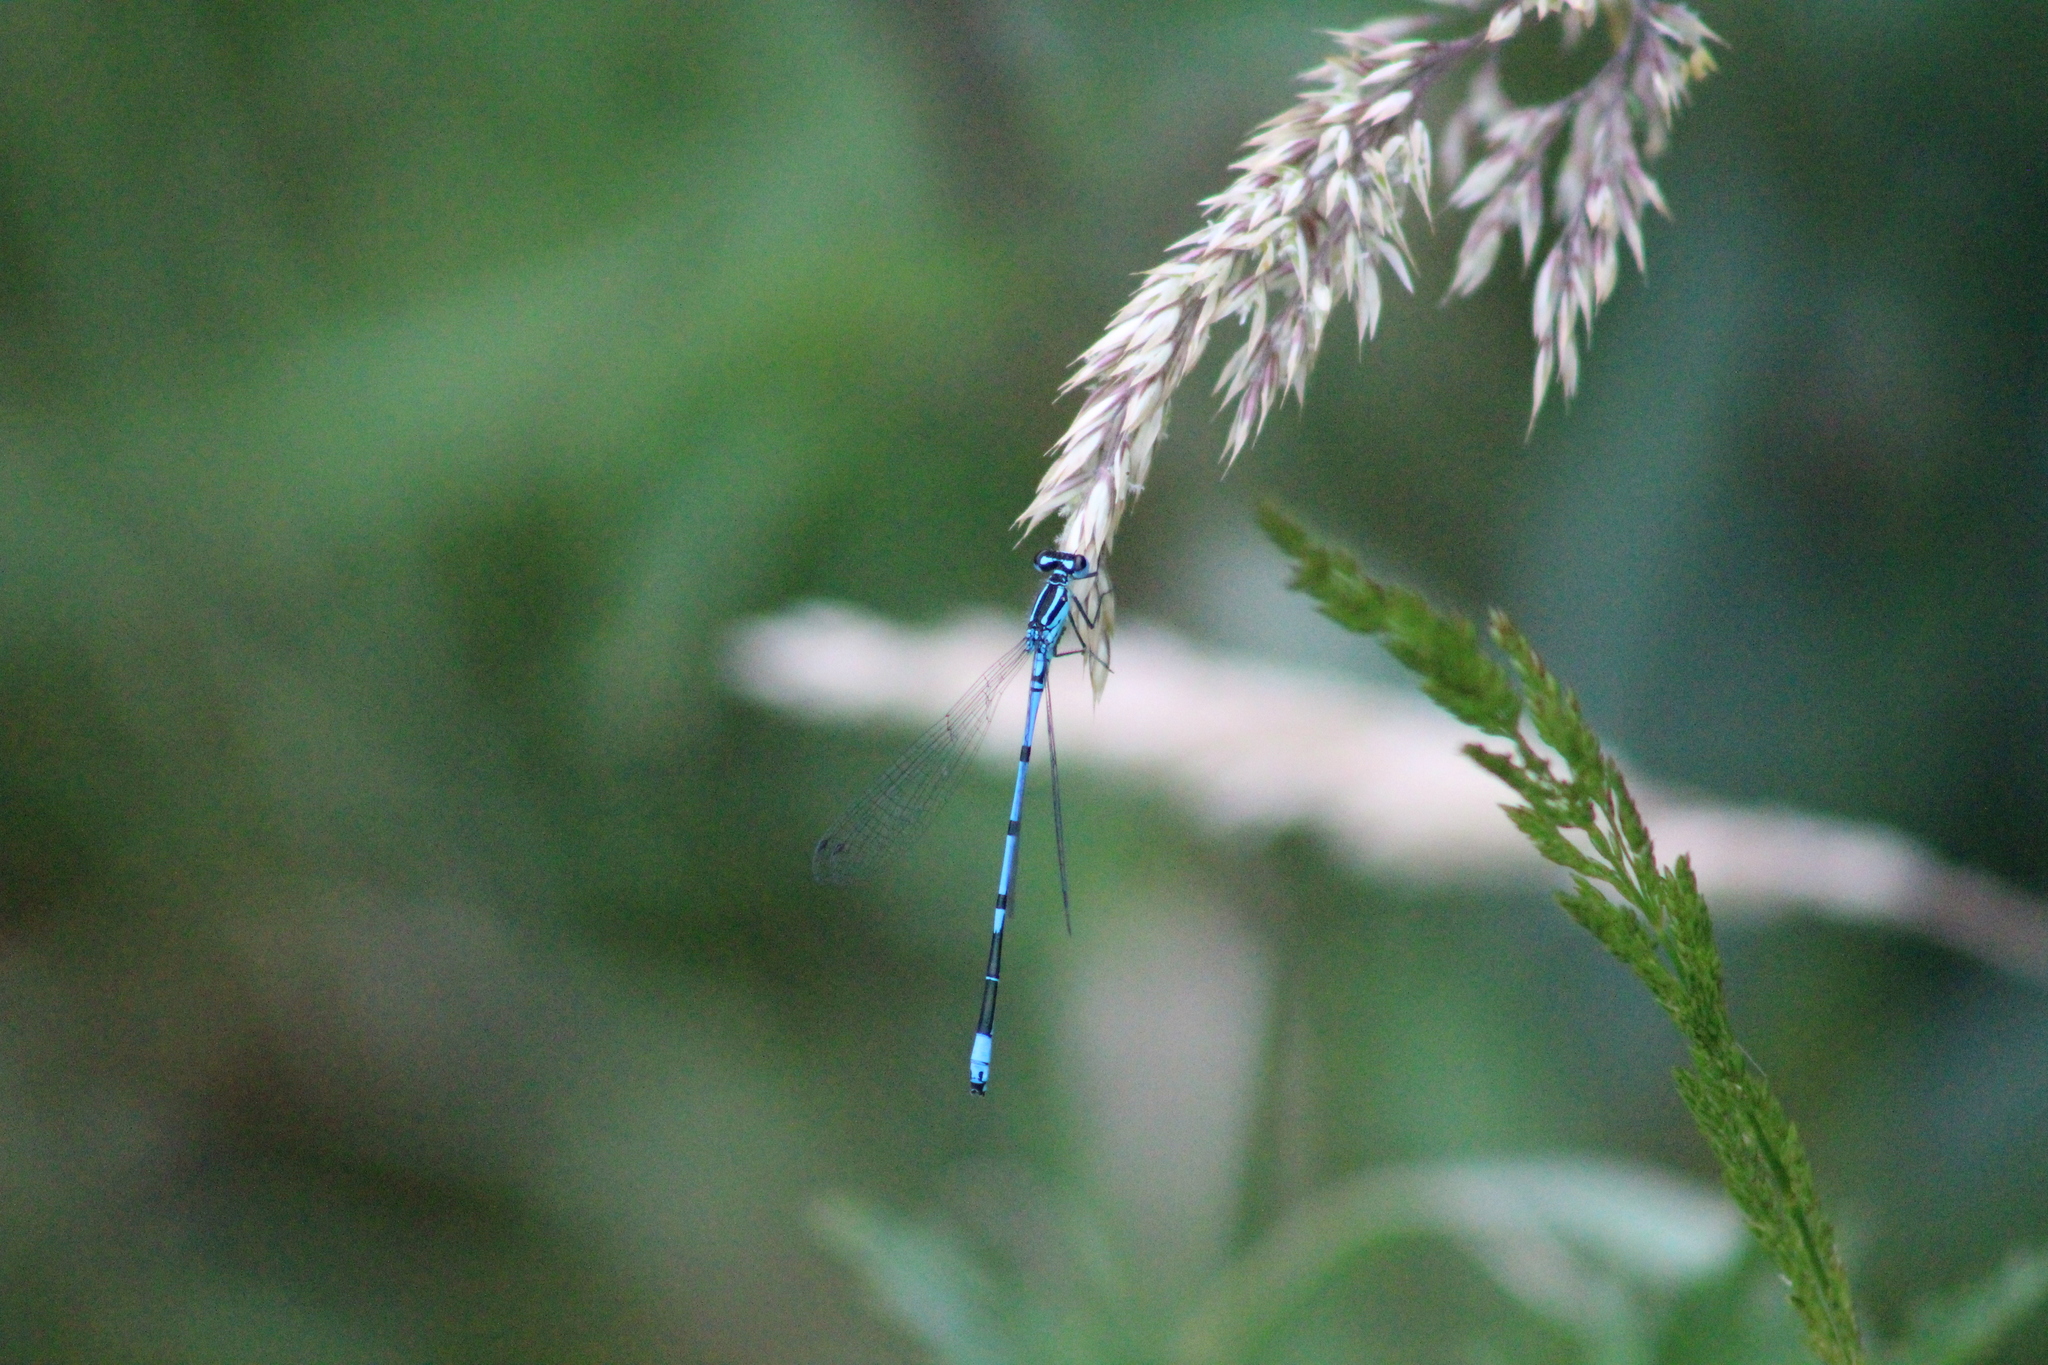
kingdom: Animalia
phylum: Arthropoda
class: Insecta
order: Odonata
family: Coenagrionidae
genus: Coenagrion
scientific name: Coenagrion puella
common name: Azure damselfly
